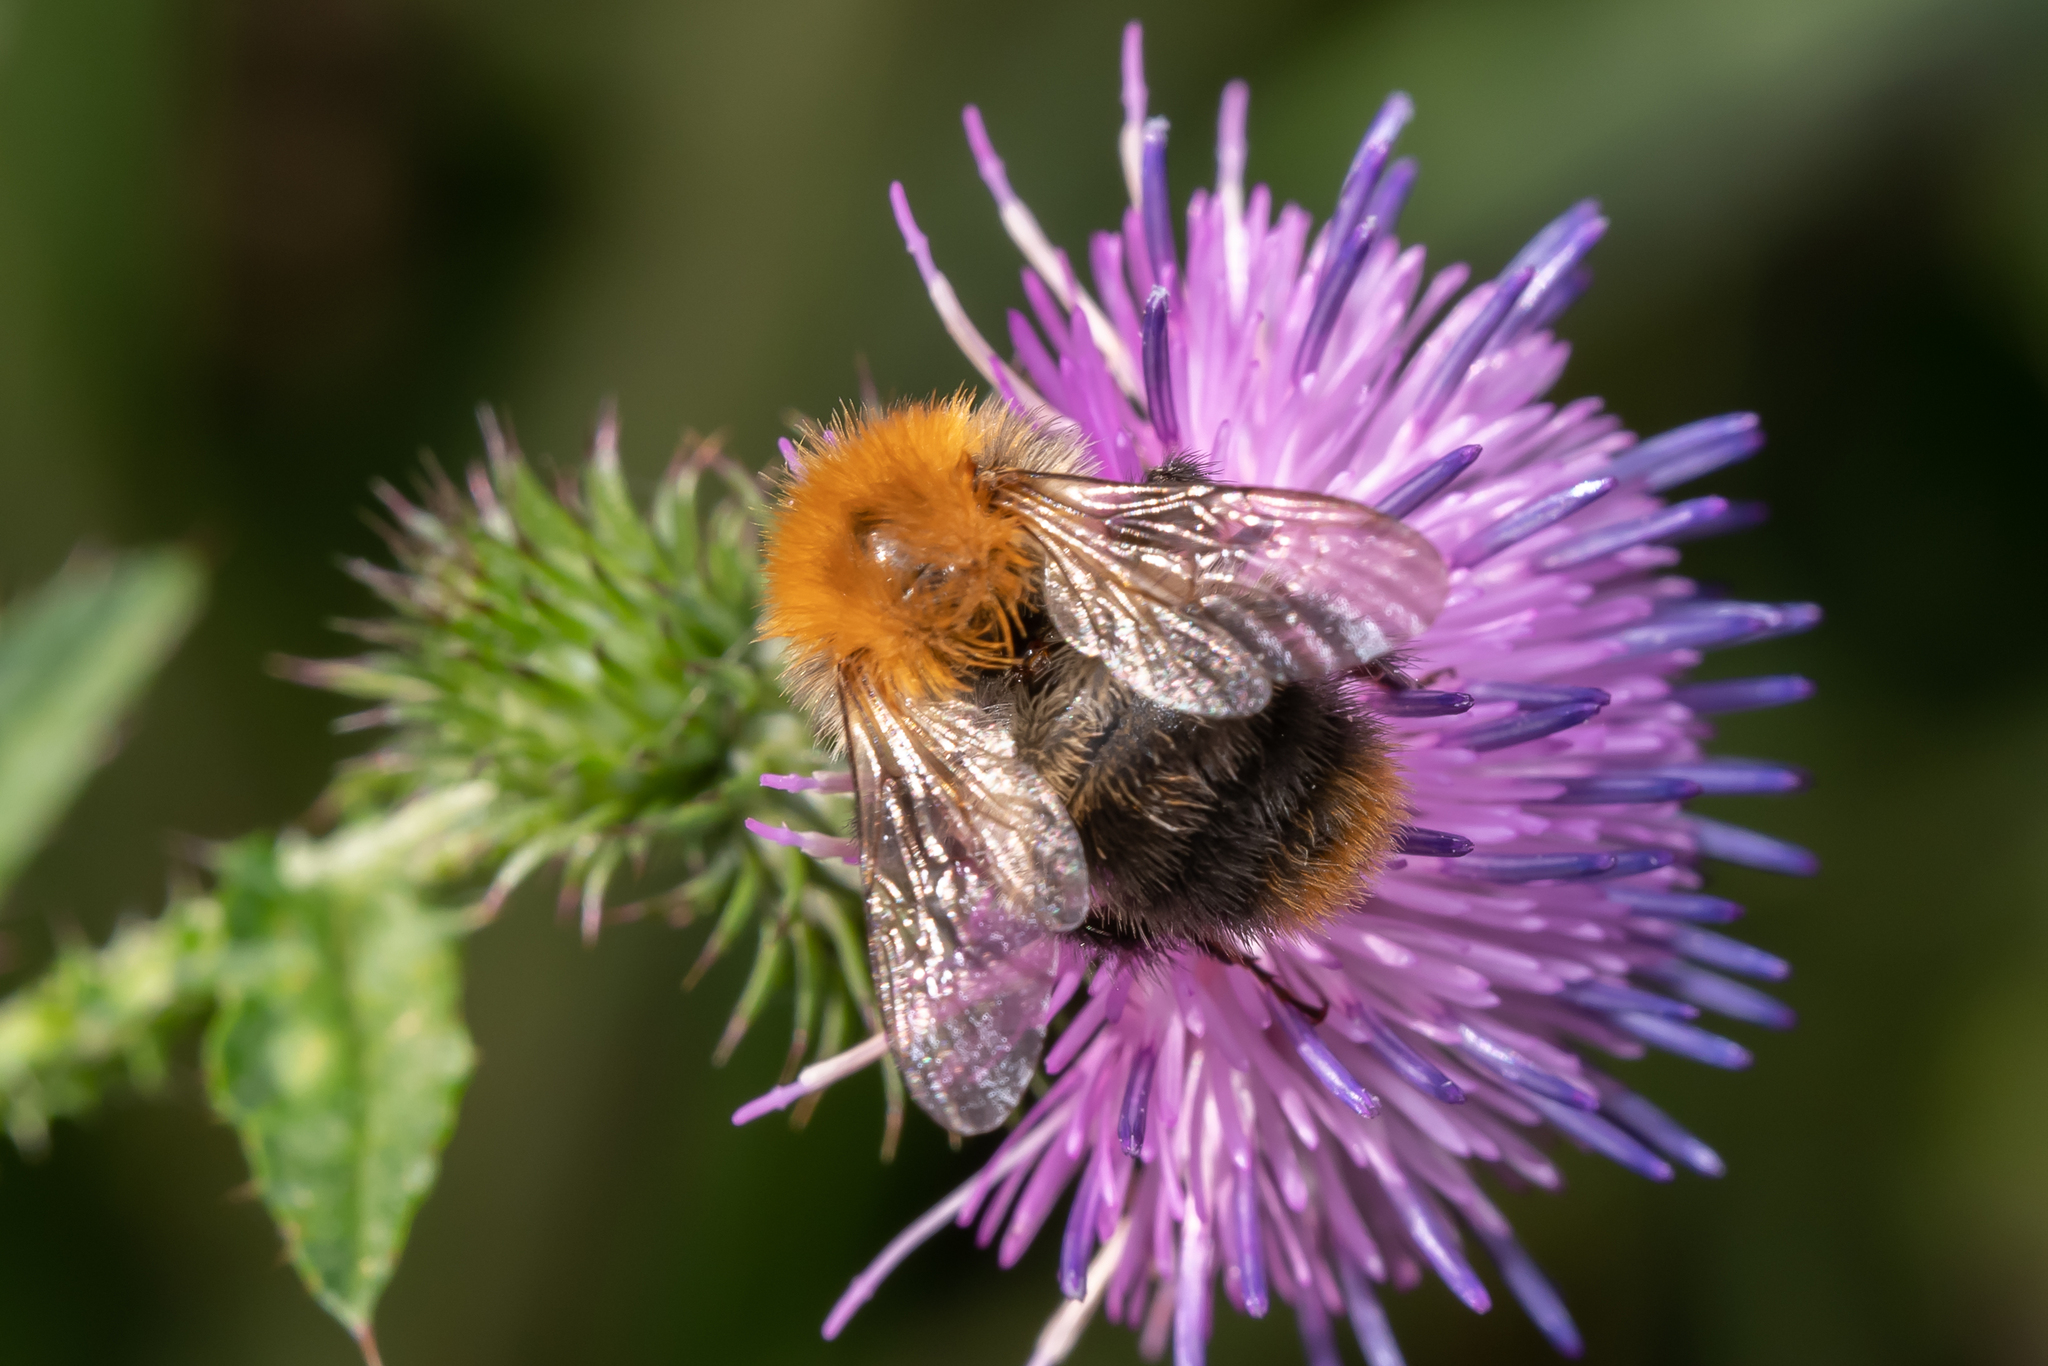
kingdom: Animalia
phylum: Arthropoda
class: Insecta
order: Hymenoptera
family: Apidae
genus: Bombus
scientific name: Bombus pascuorum
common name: Common carder bee
